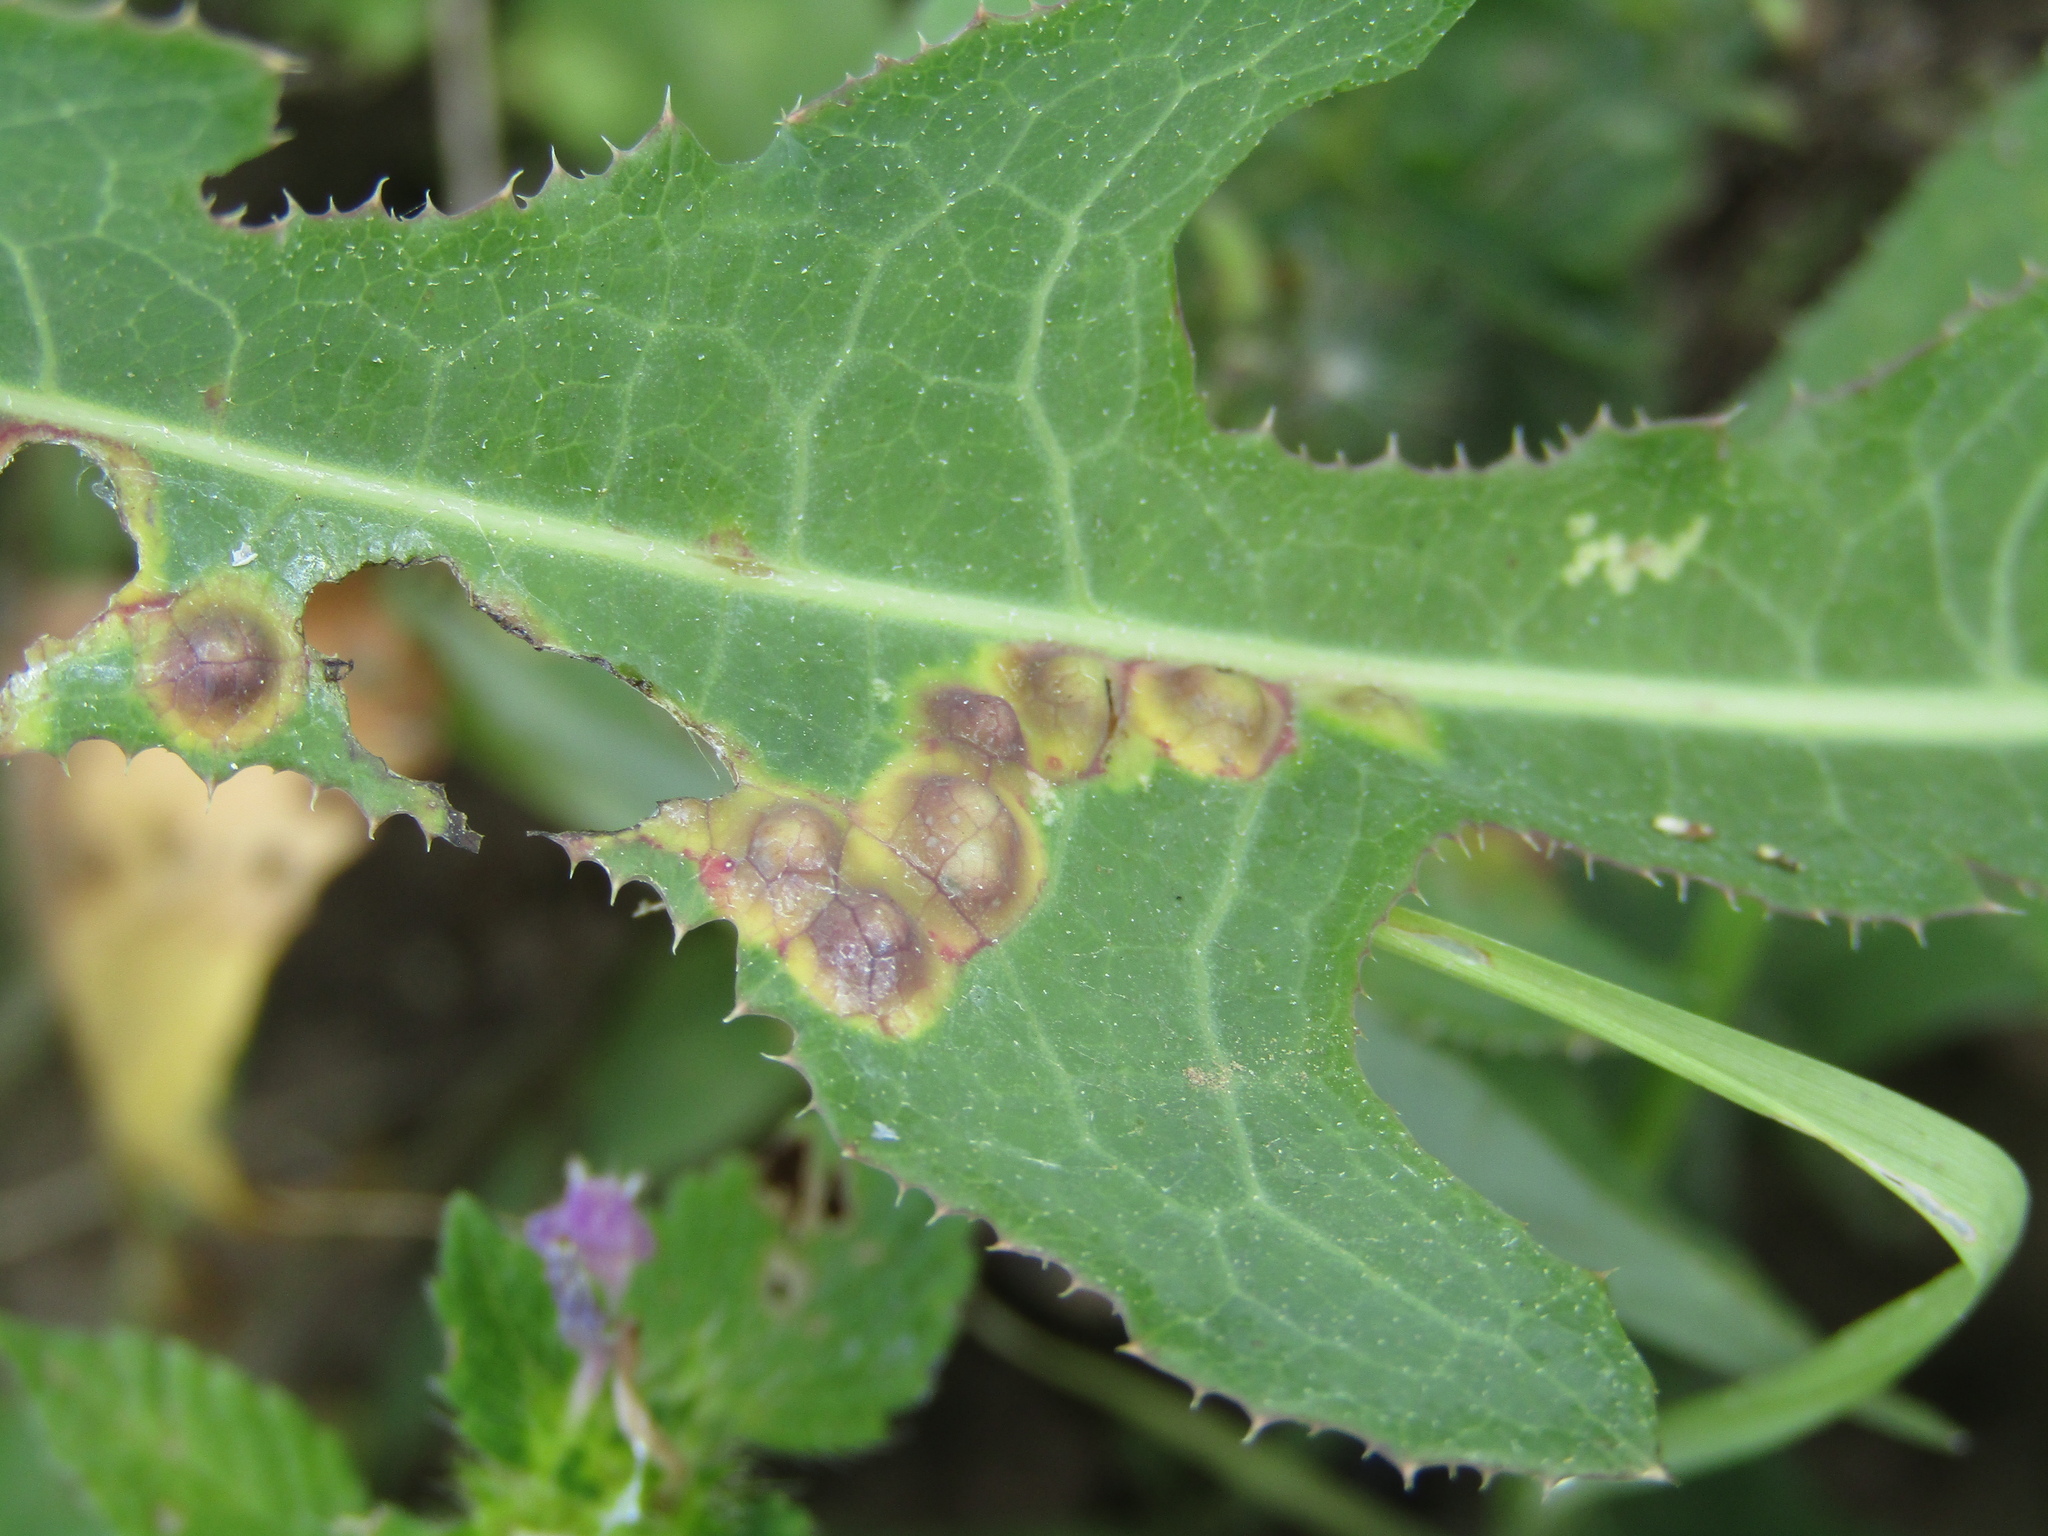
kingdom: Animalia
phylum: Arthropoda
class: Insecta
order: Diptera
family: Cecidomyiidae
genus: Cystiphora
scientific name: Cystiphora sonchi
